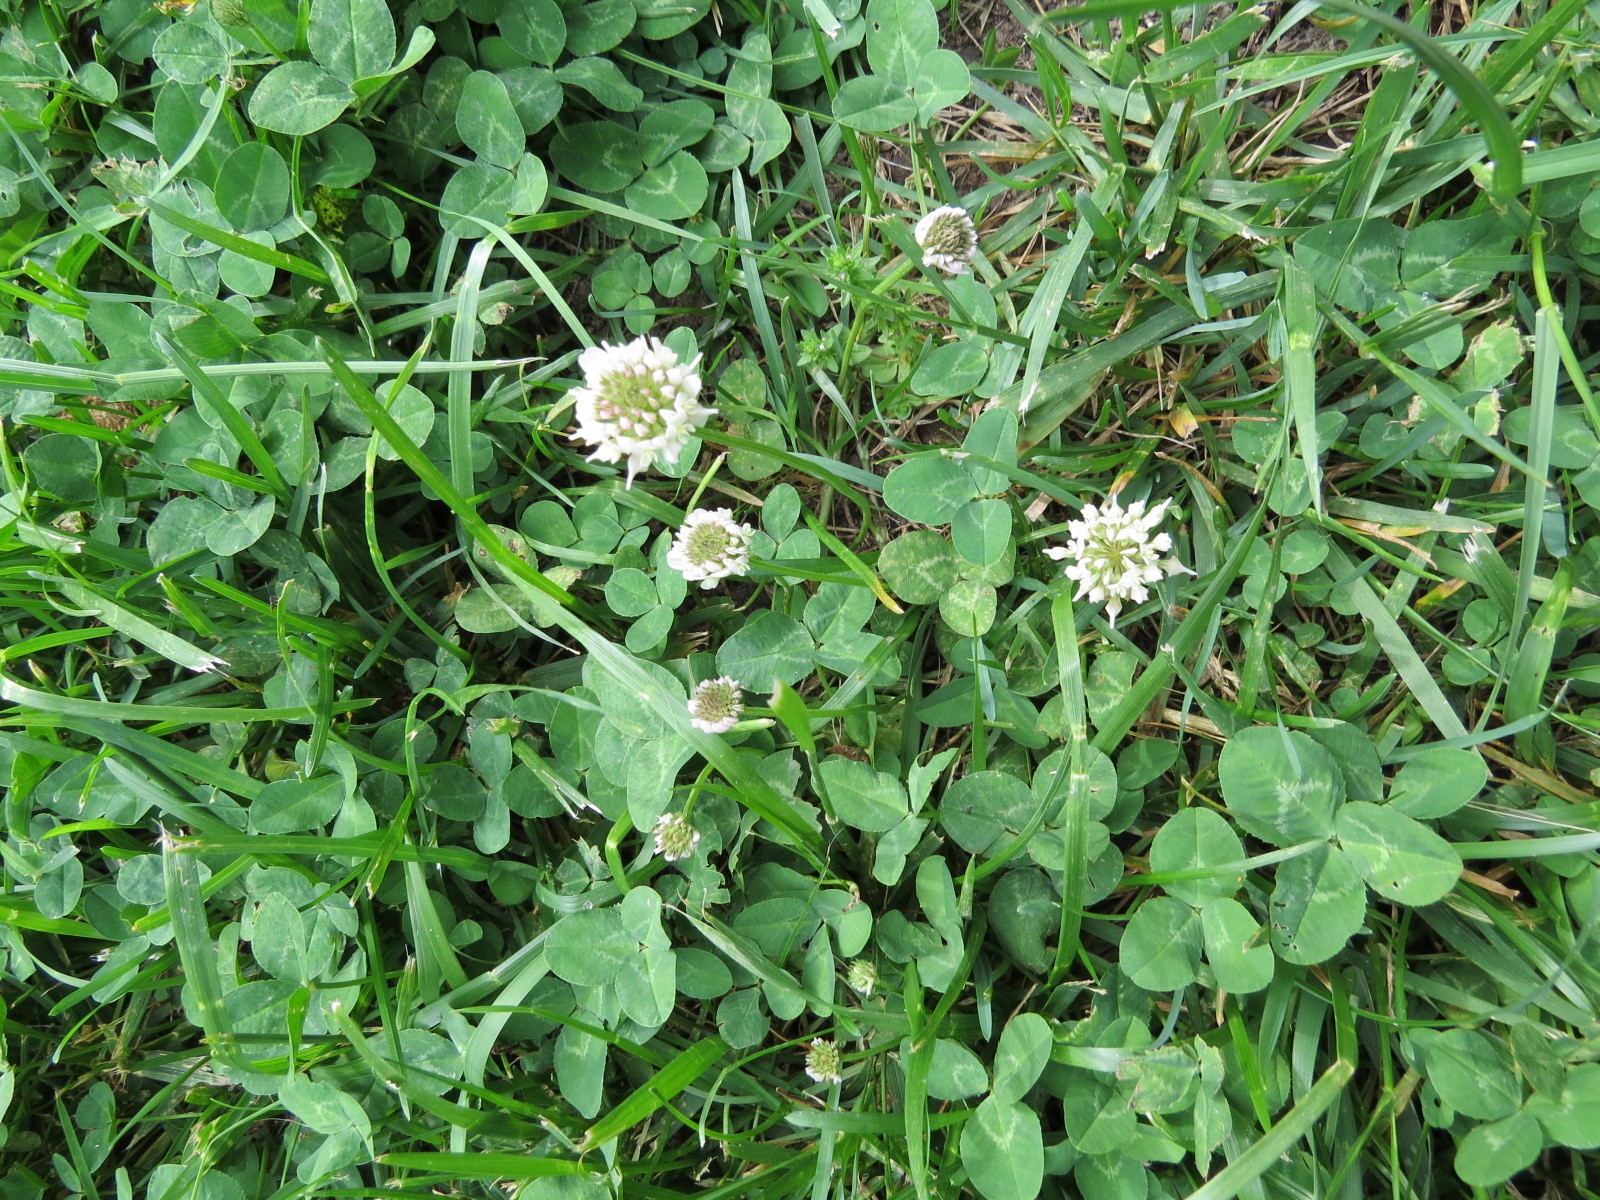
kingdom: Plantae
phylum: Tracheophyta
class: Magnoliopsida
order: Fabales
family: Fabaceae
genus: Trifolium
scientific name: Trifolium repens
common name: White clover
